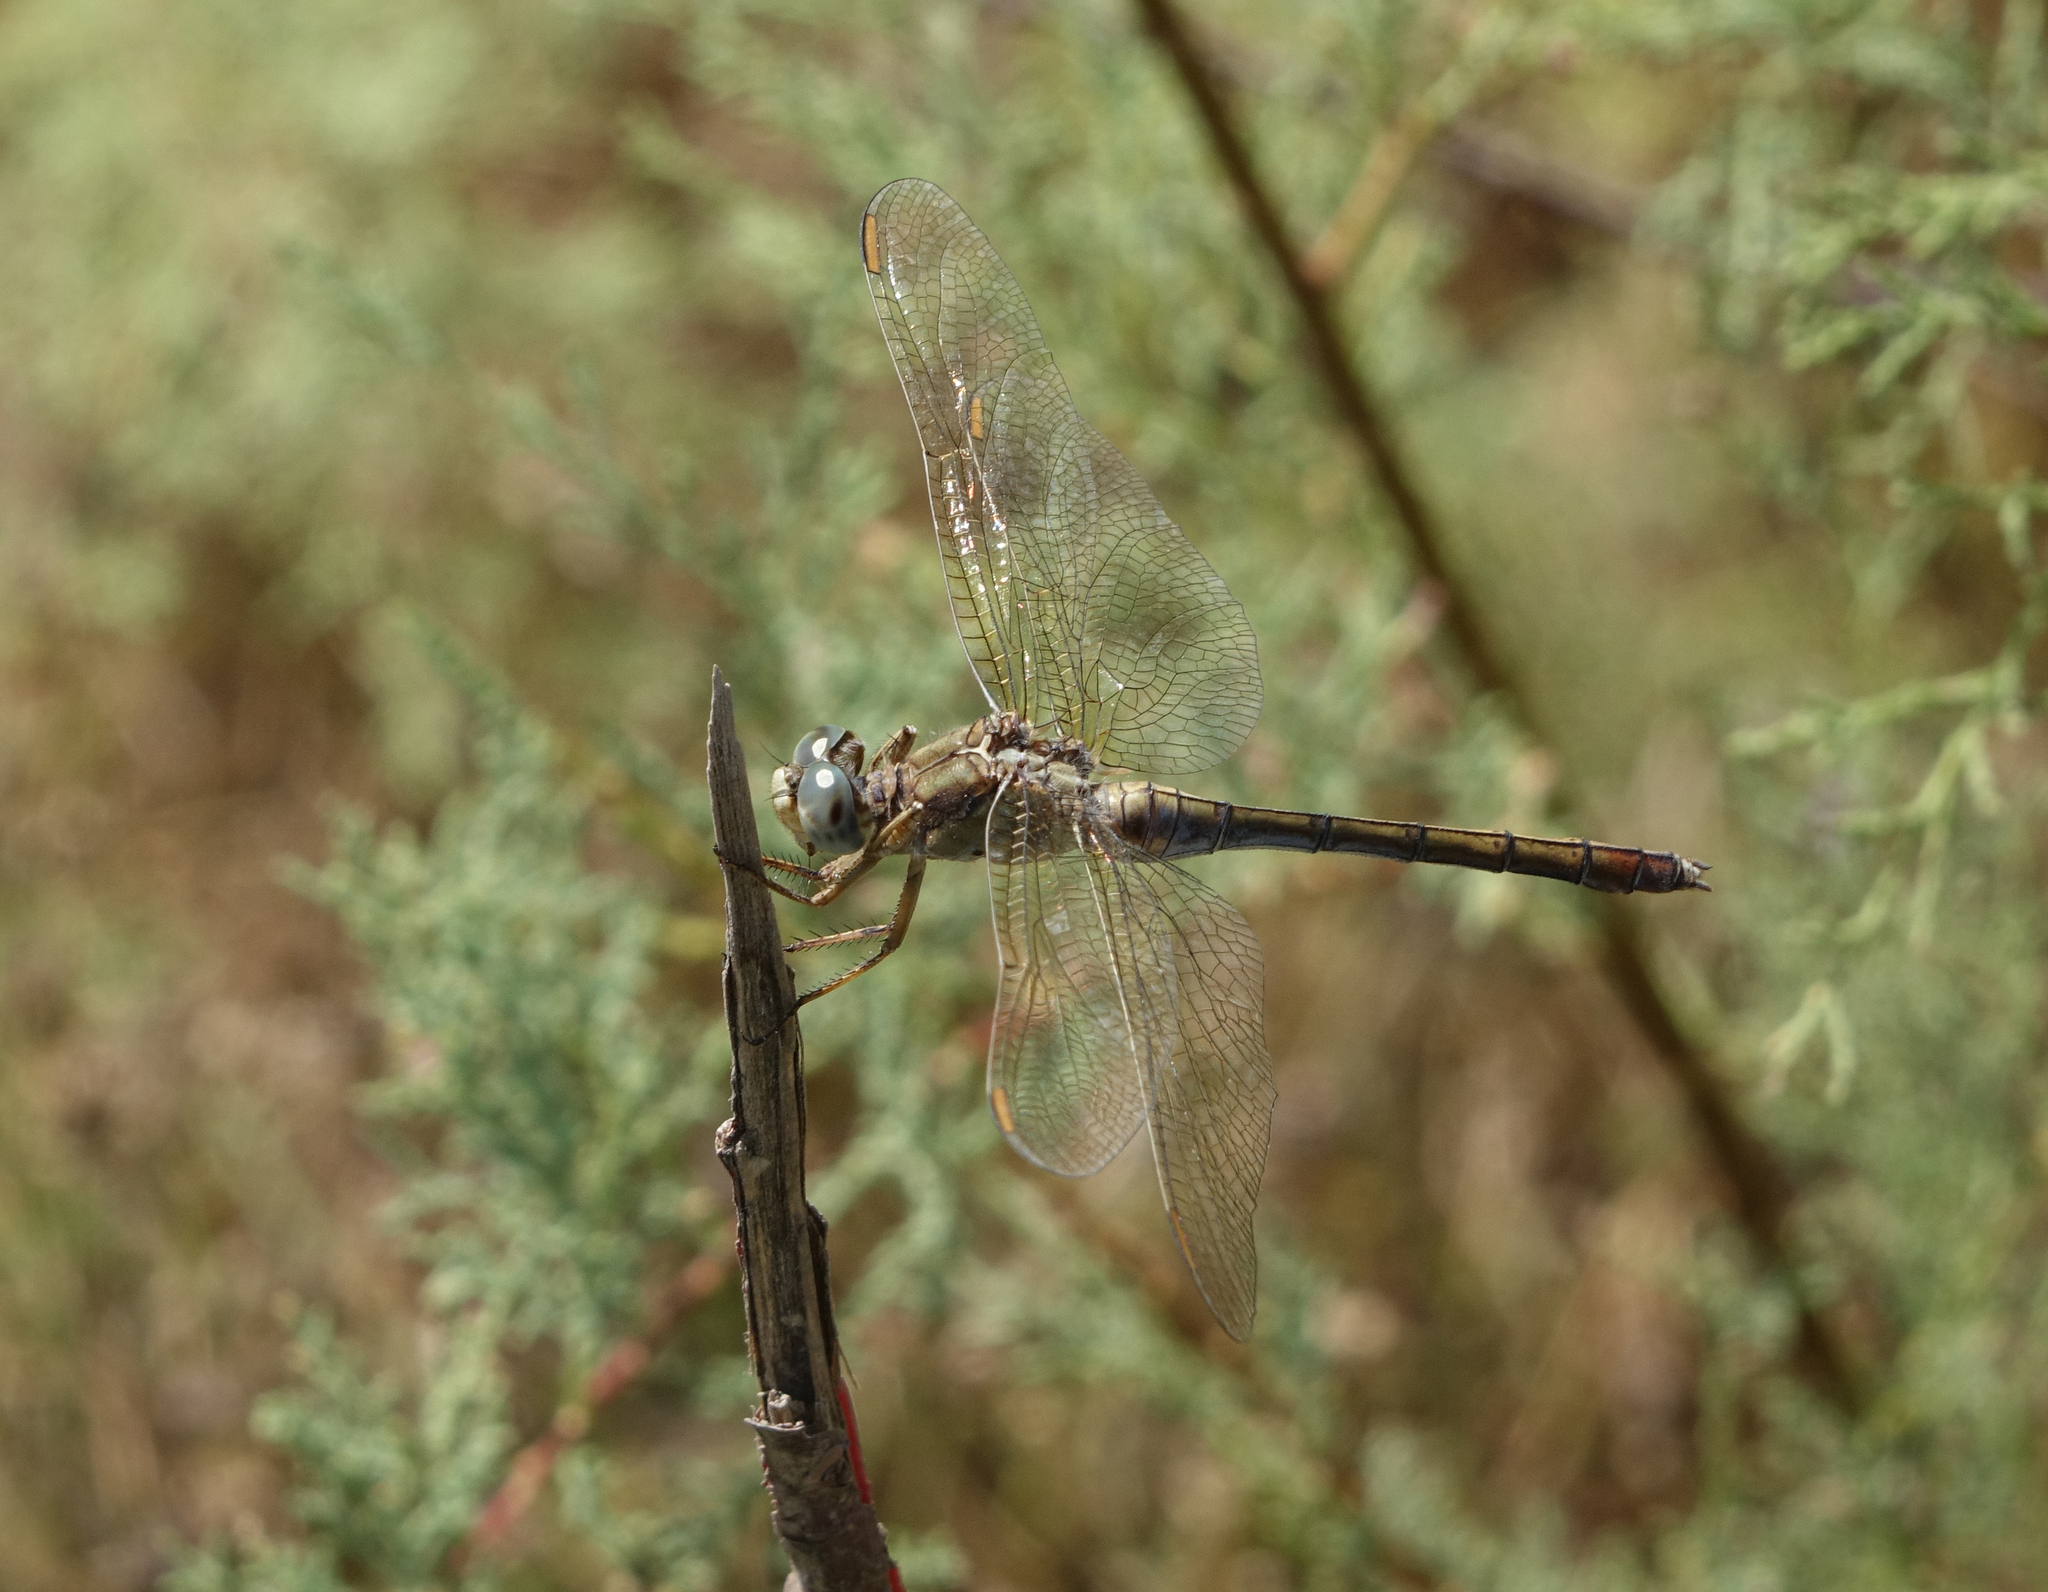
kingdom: Animalia
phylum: Arthropoda
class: Insecta
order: Odonata
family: Libellulidae
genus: Orthetrum
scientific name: Orthetrum coerulescens
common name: Keeled skimmer
